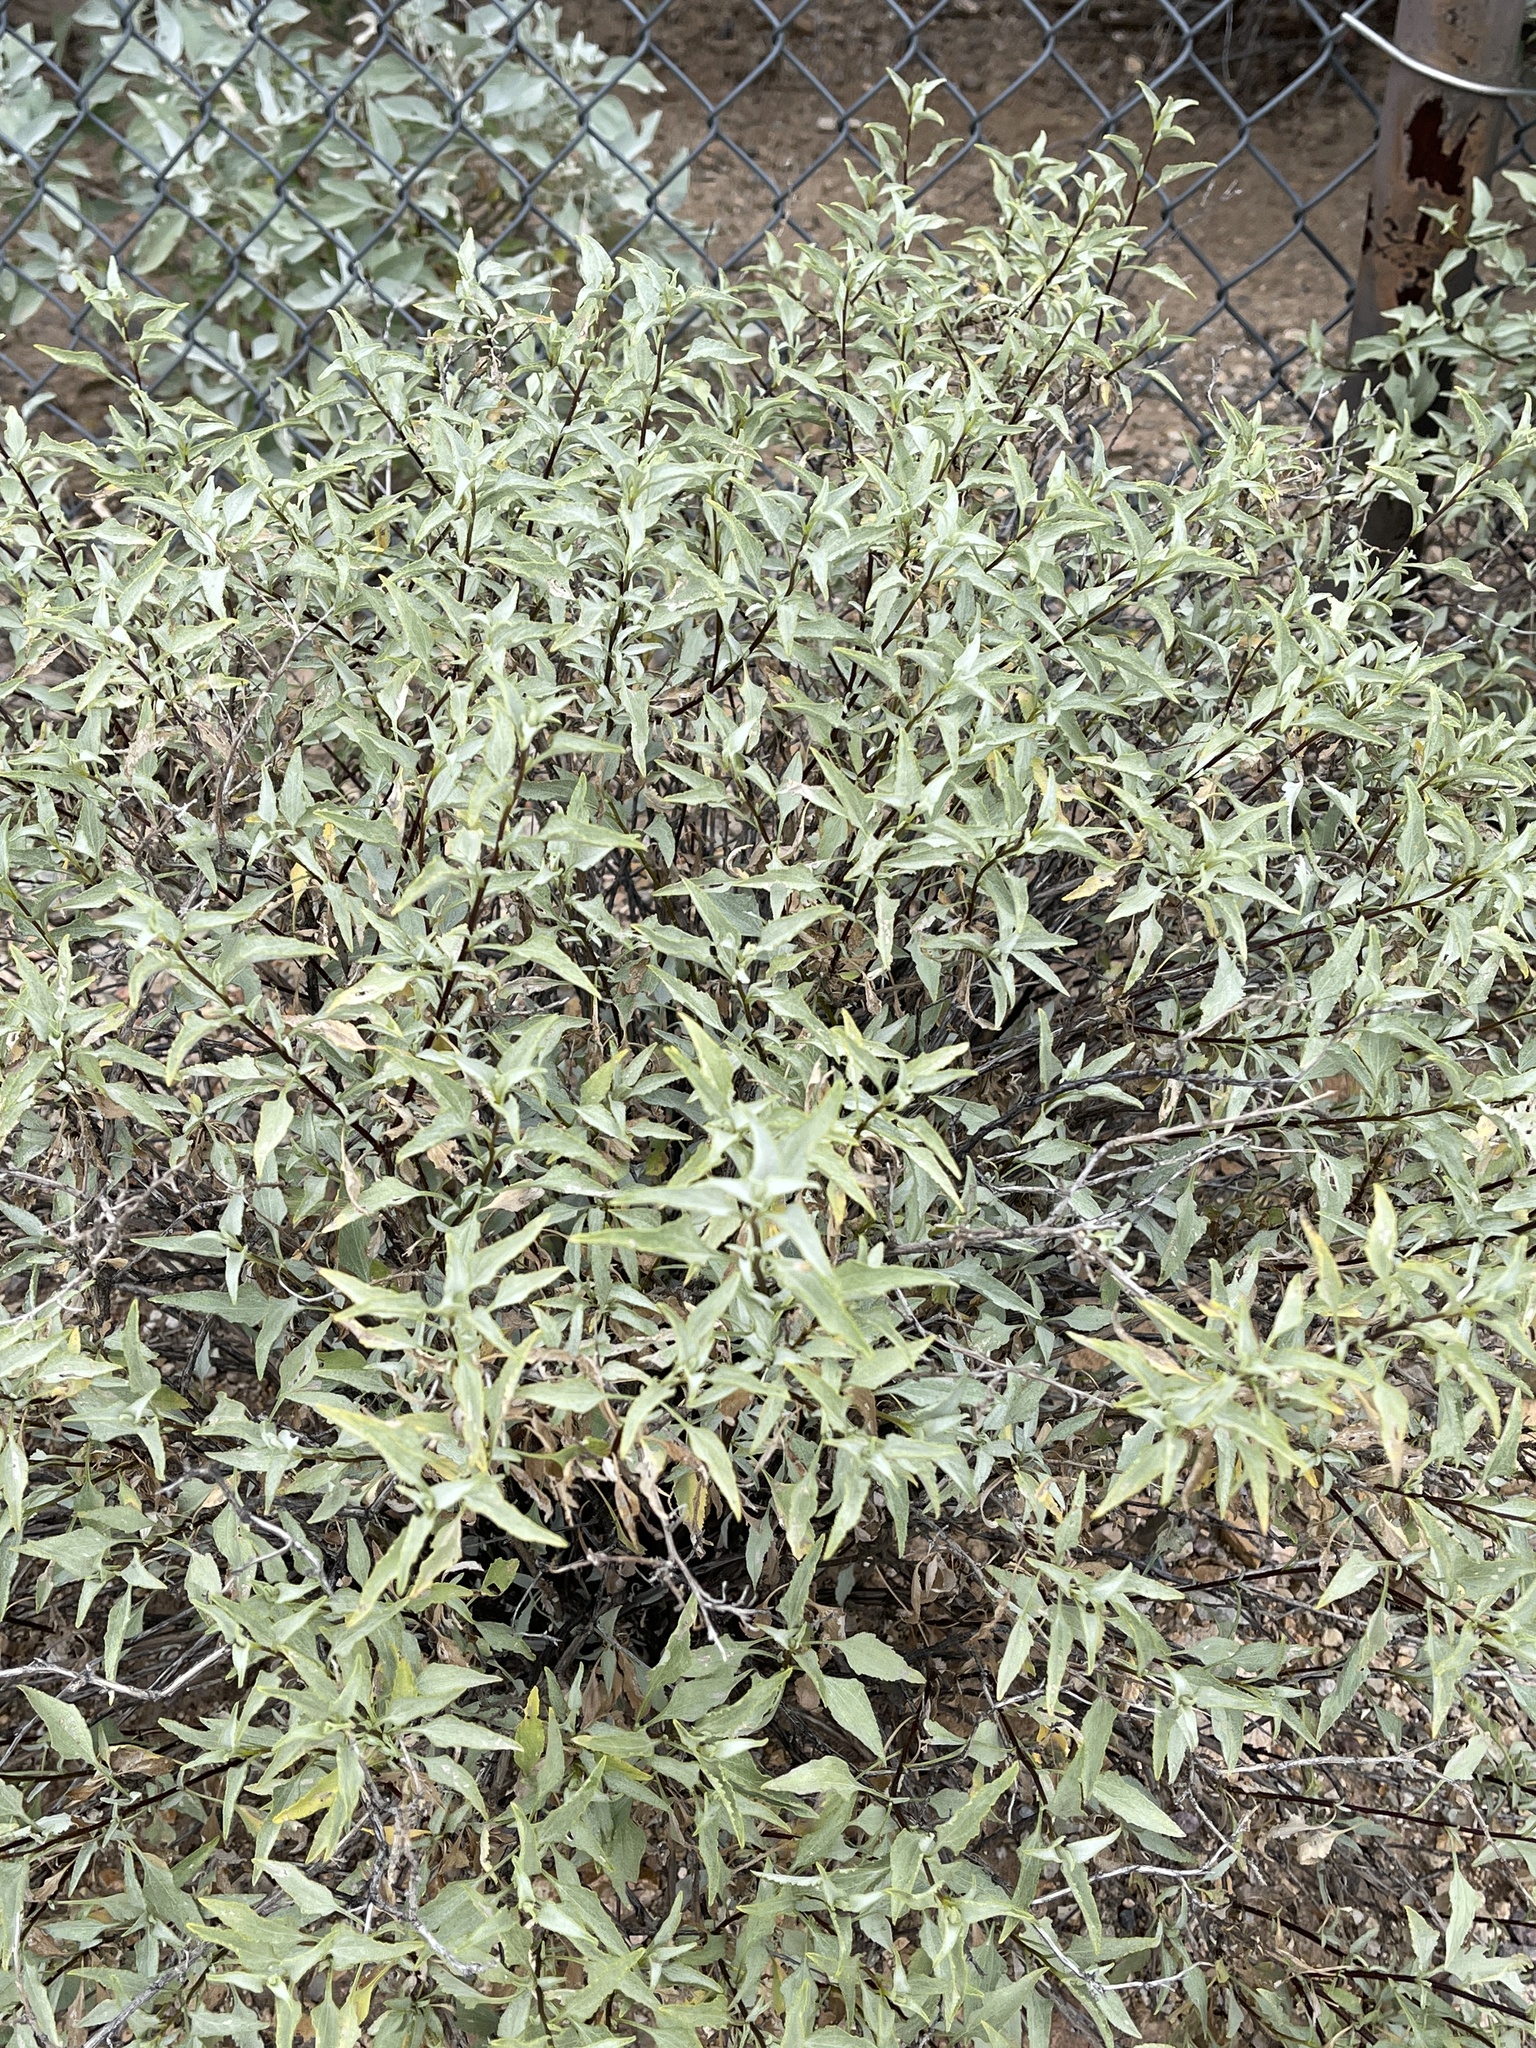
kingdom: Plantae
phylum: Tracheophyta
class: Magnoliopsida
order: Asterales
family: Asteraceae
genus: Ambrosia
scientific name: Ambrosia deltoidea
